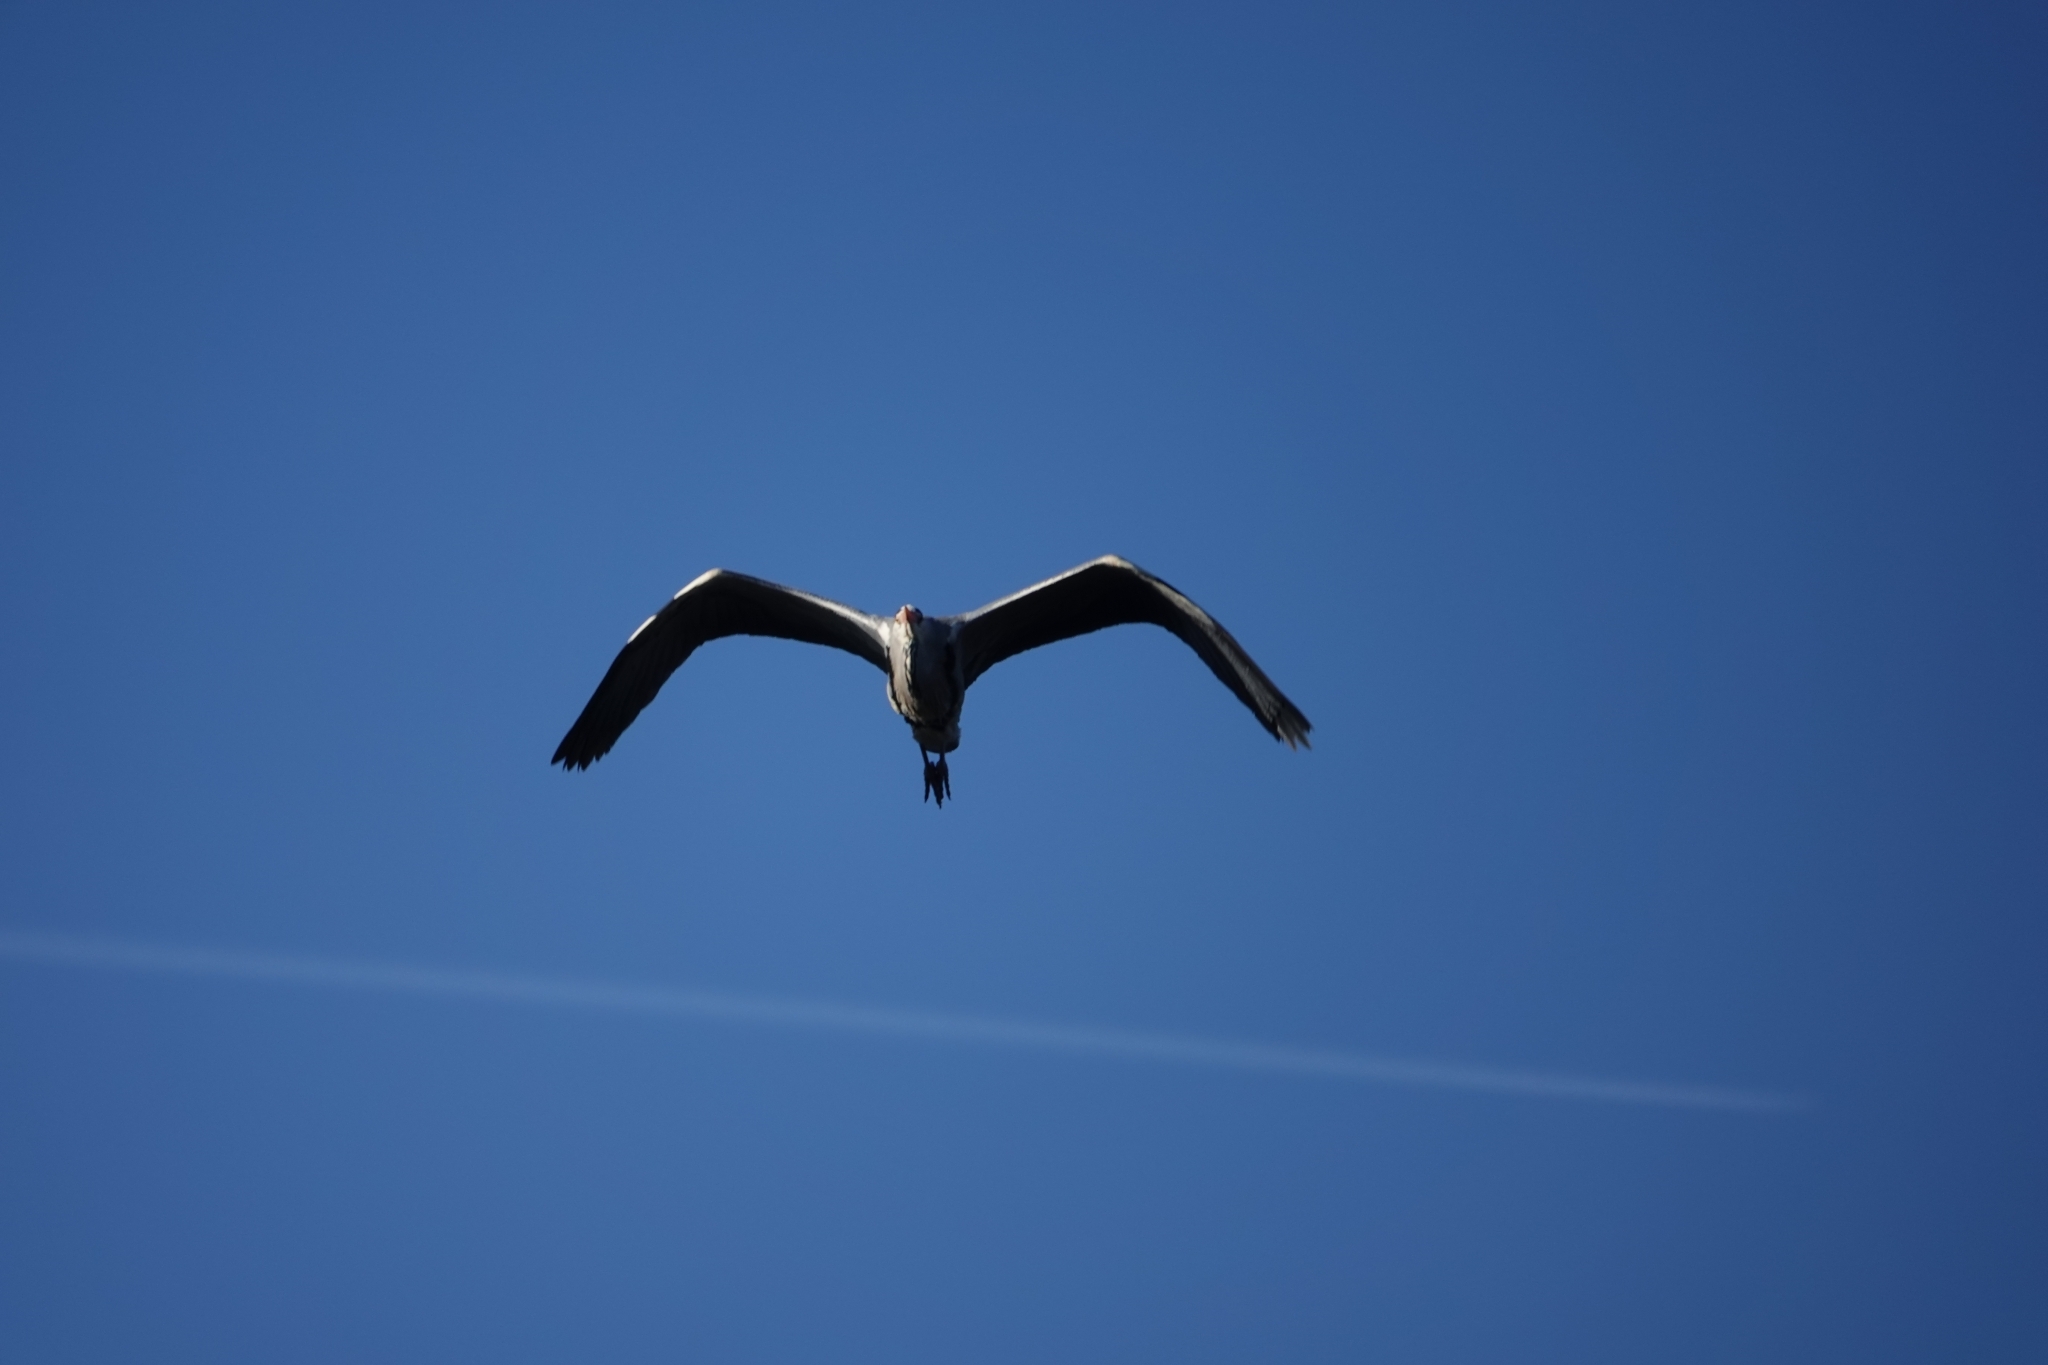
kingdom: Animalia
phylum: Chordata
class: Aves
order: Pelecaniformes
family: Ardeidae
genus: Ardea
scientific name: Ardea cinerea
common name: Grey heron
